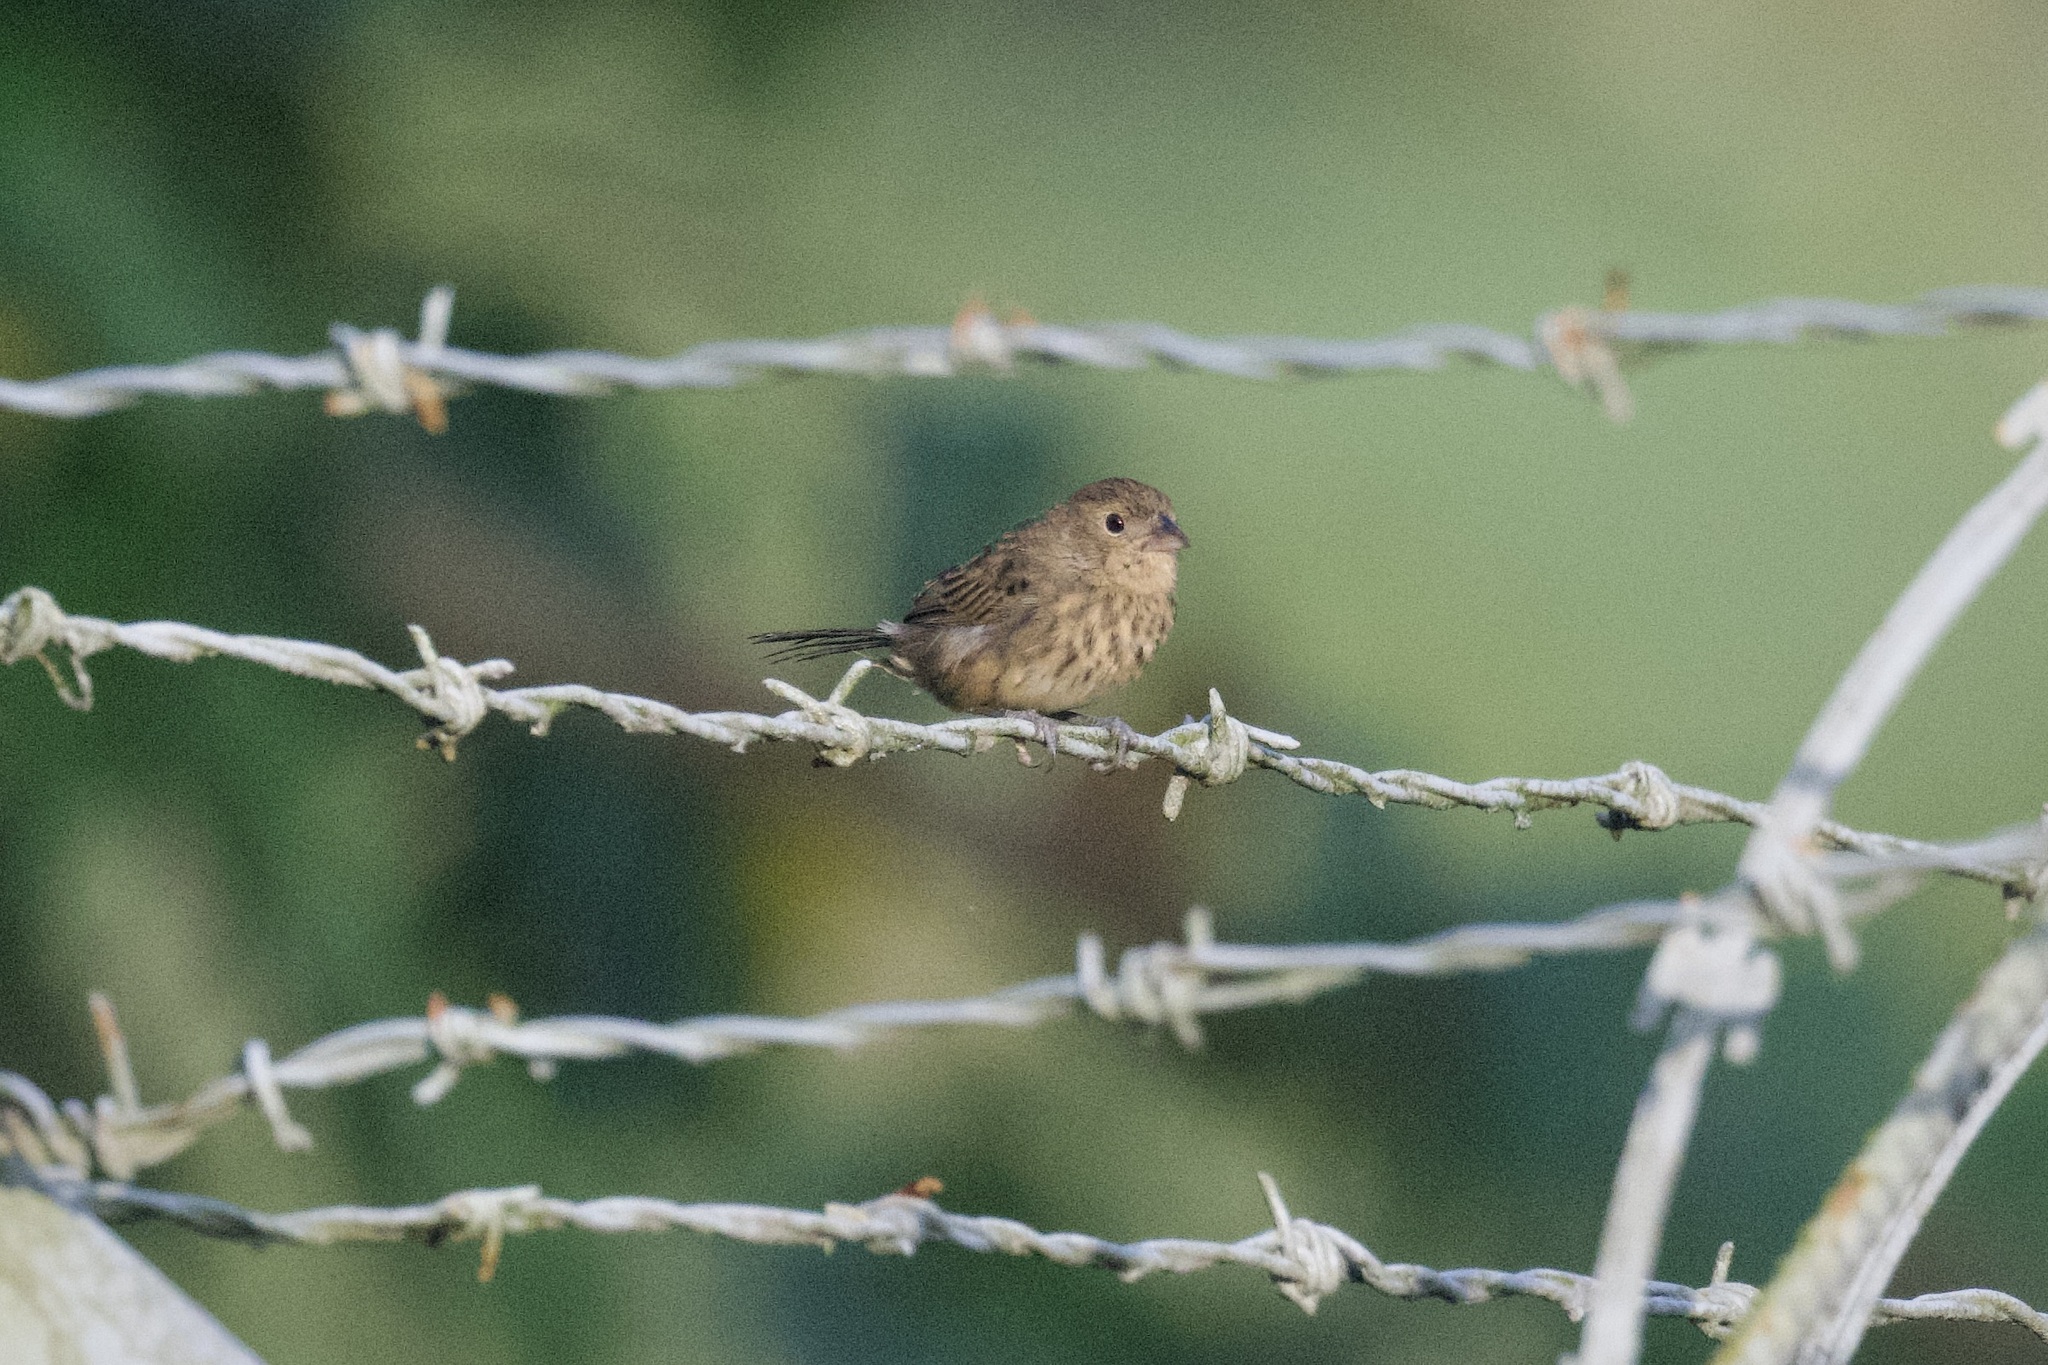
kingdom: Animalia
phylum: Chordata
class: Aves
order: Passeriformes
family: Thraupidae
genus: Volatinia
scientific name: Volatinia jacarina
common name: Blue-black grassquit
